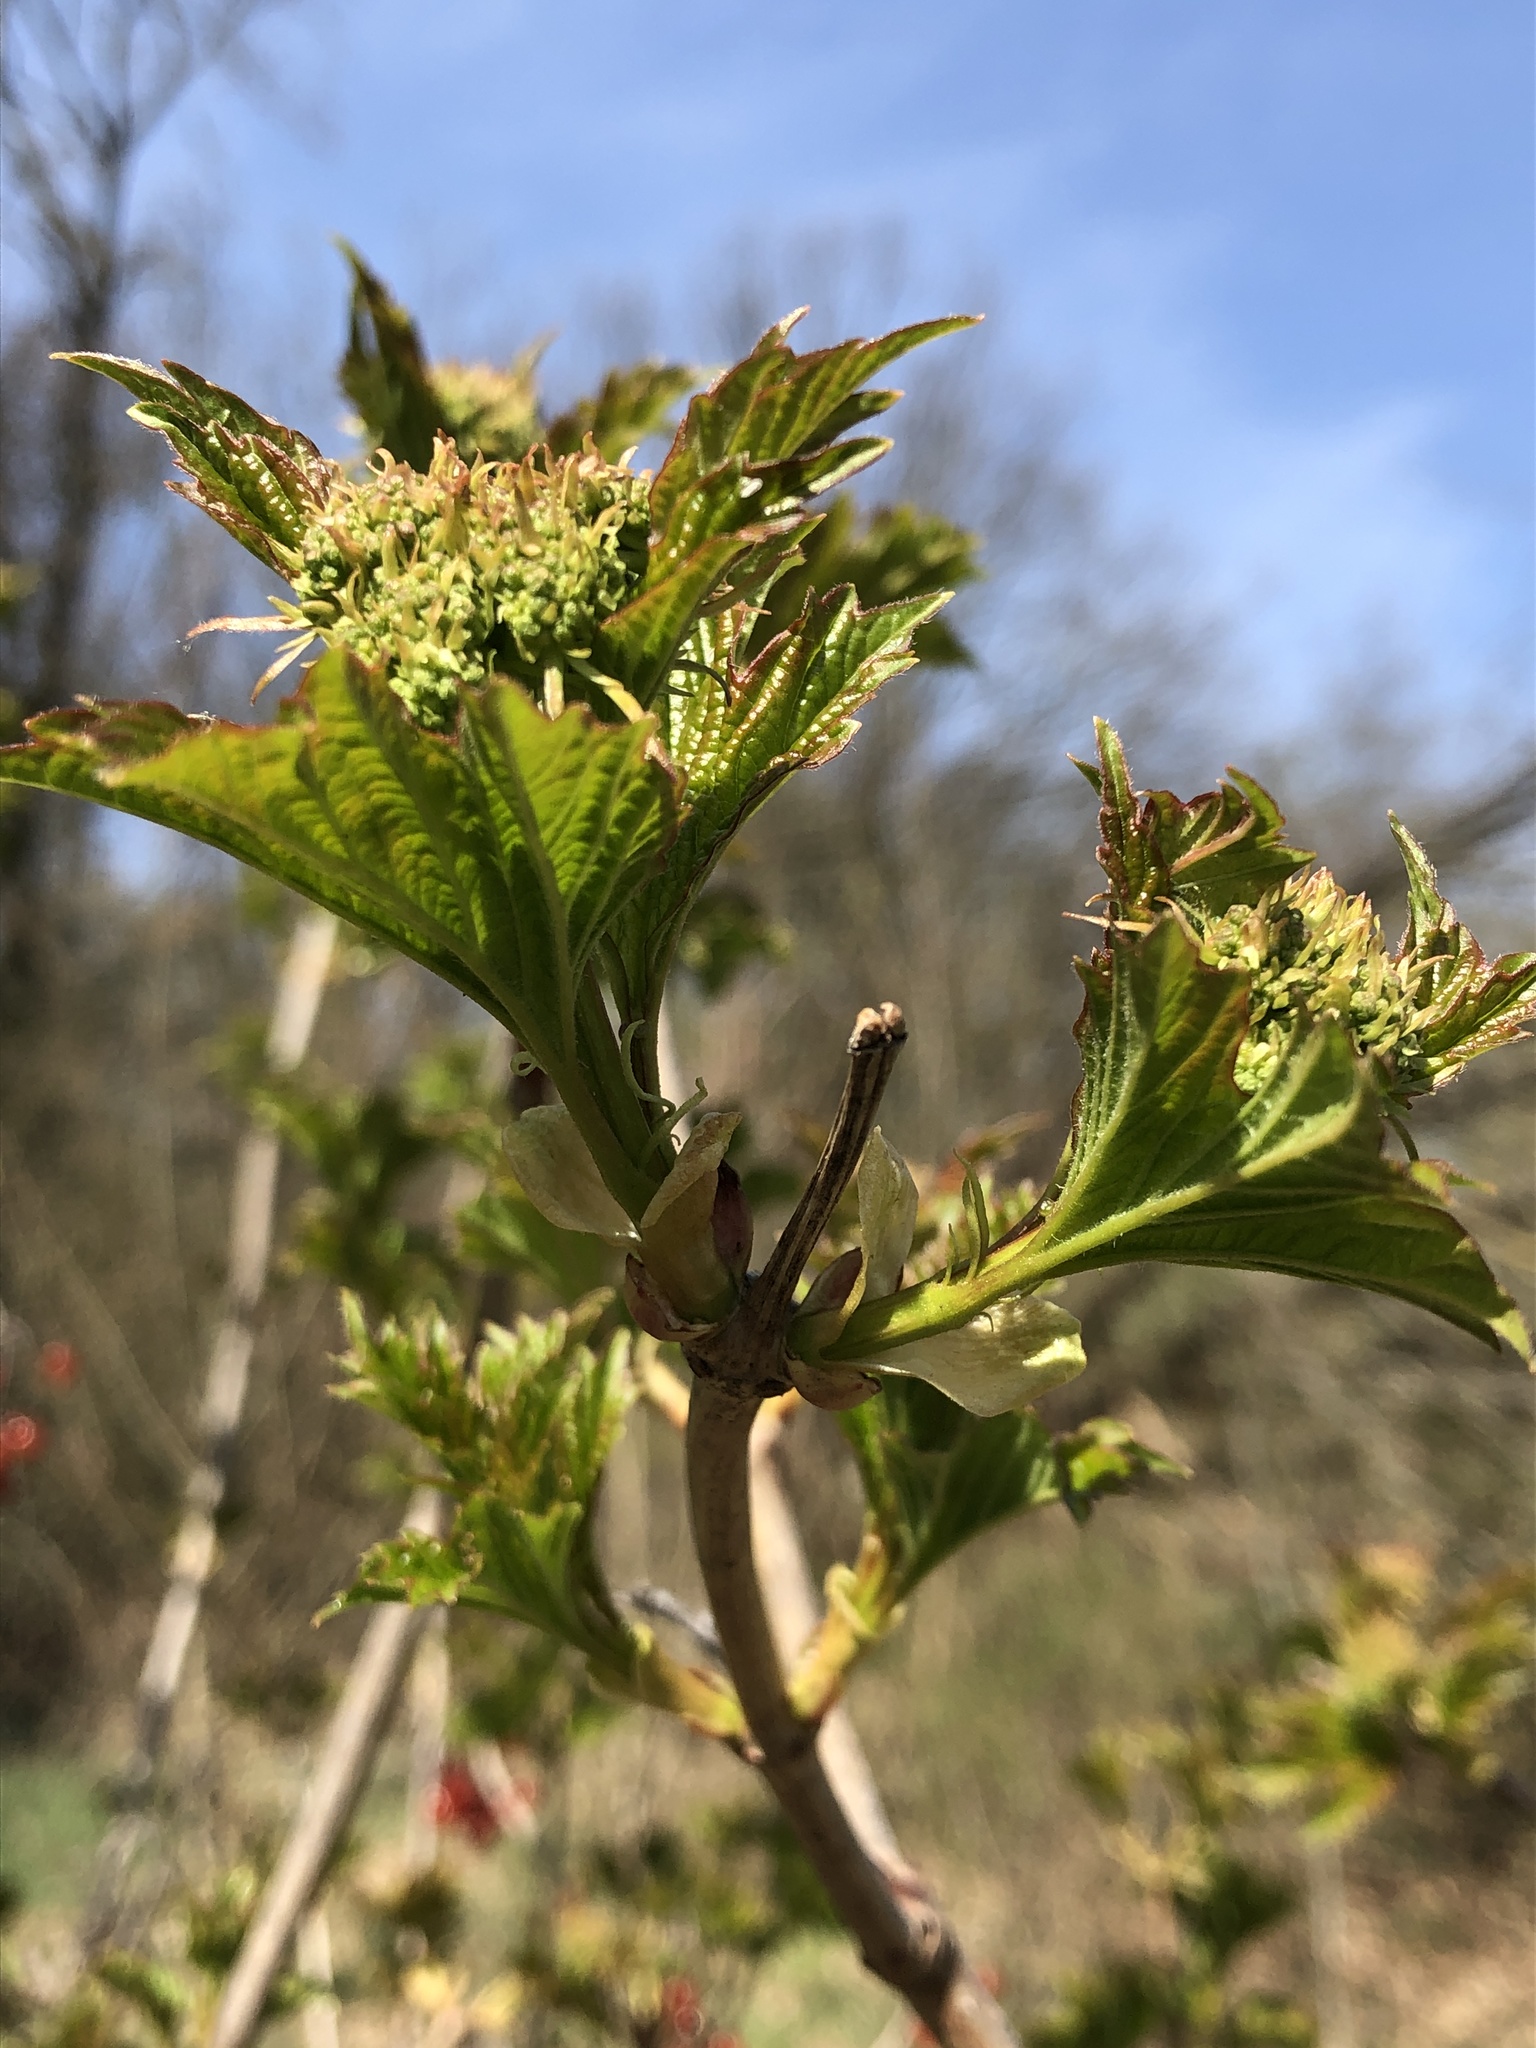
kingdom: Plantae
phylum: Tracheophyta
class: Magnoliopsida
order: Dipsacales
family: Viburnaceae
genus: Viburnum
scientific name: Viburnum opulus
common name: Guelder-rose
